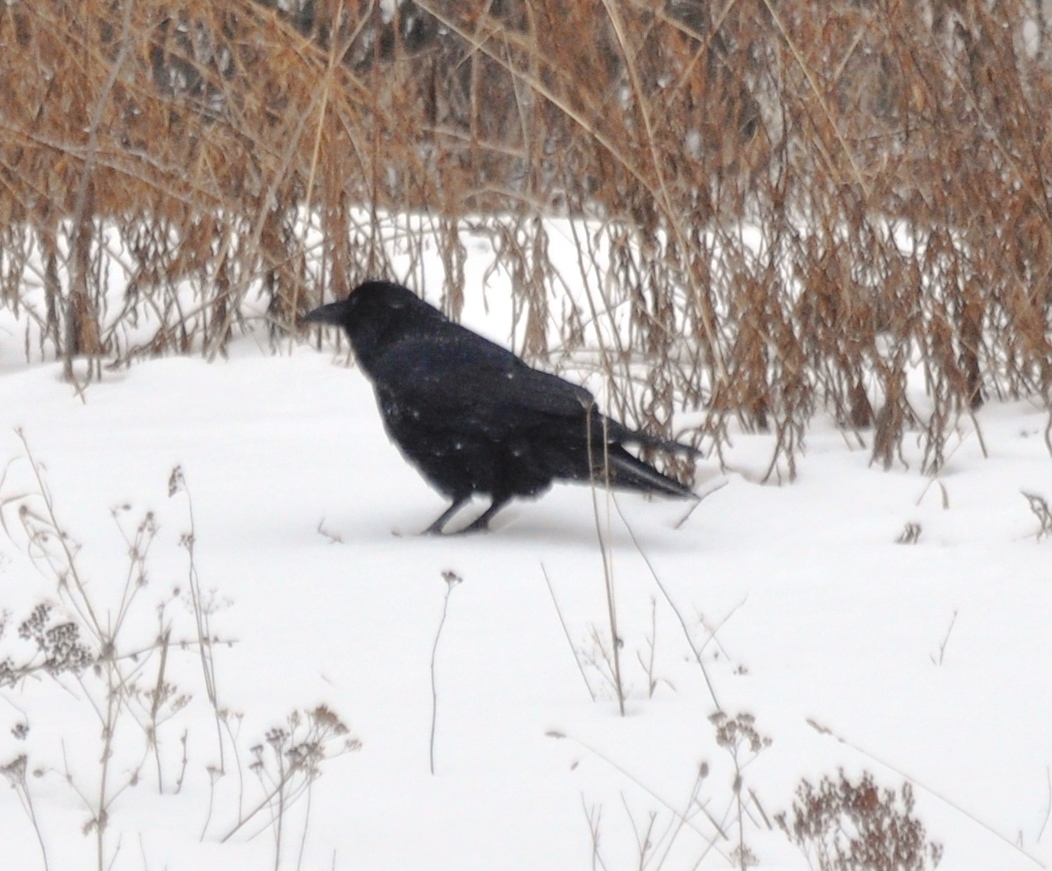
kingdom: Animalia
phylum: Chordata
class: Aves
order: Passeriformes
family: Corvidae
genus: Corvus
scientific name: Corvus corax
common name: Common raven
